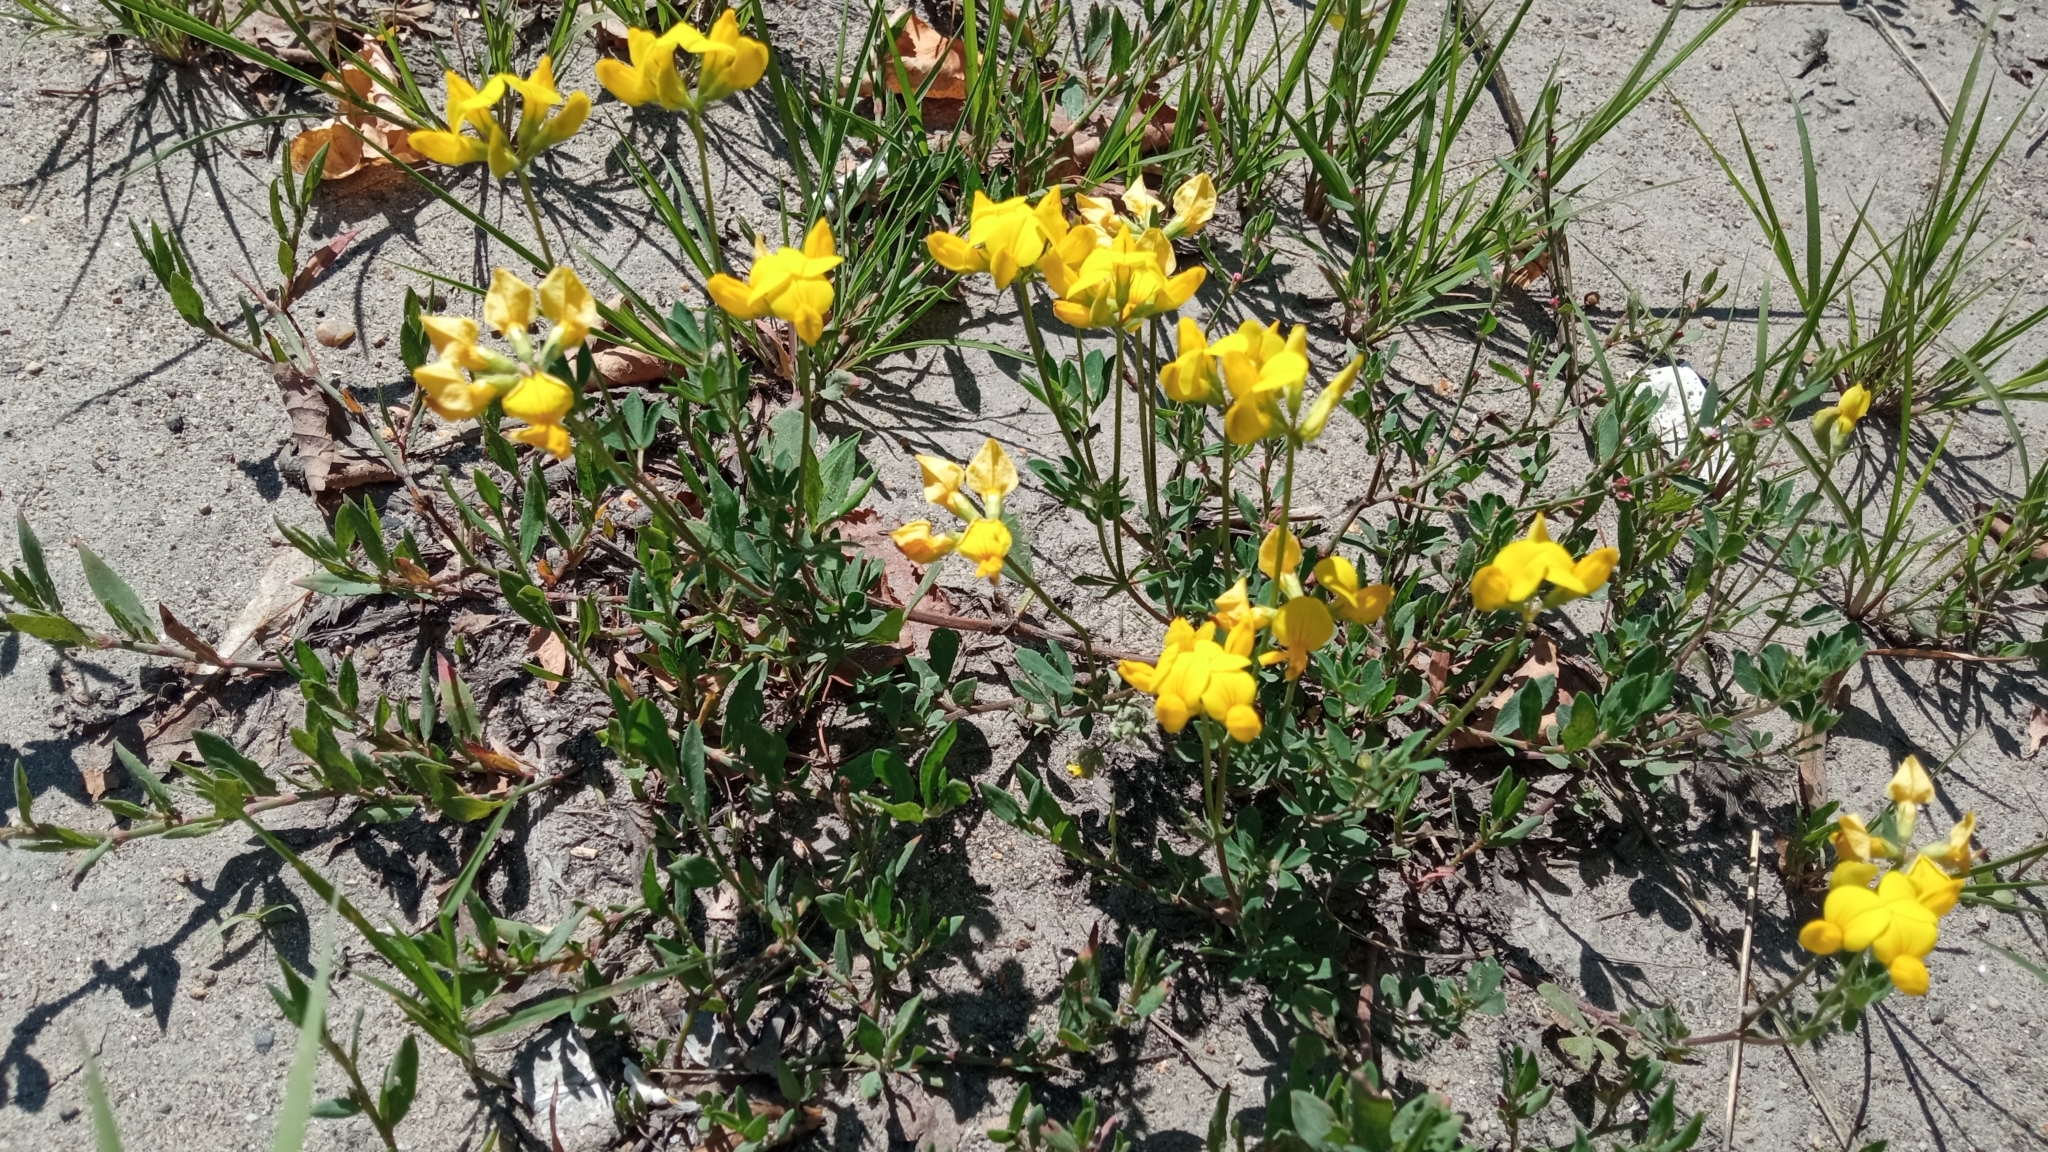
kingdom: Plantae
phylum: Tracheophyta
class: Magnoliopsida
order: Fabales
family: Fabaceae
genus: Lotus
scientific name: Lotus corniculatus
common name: Common bird's-foot-trefoil
